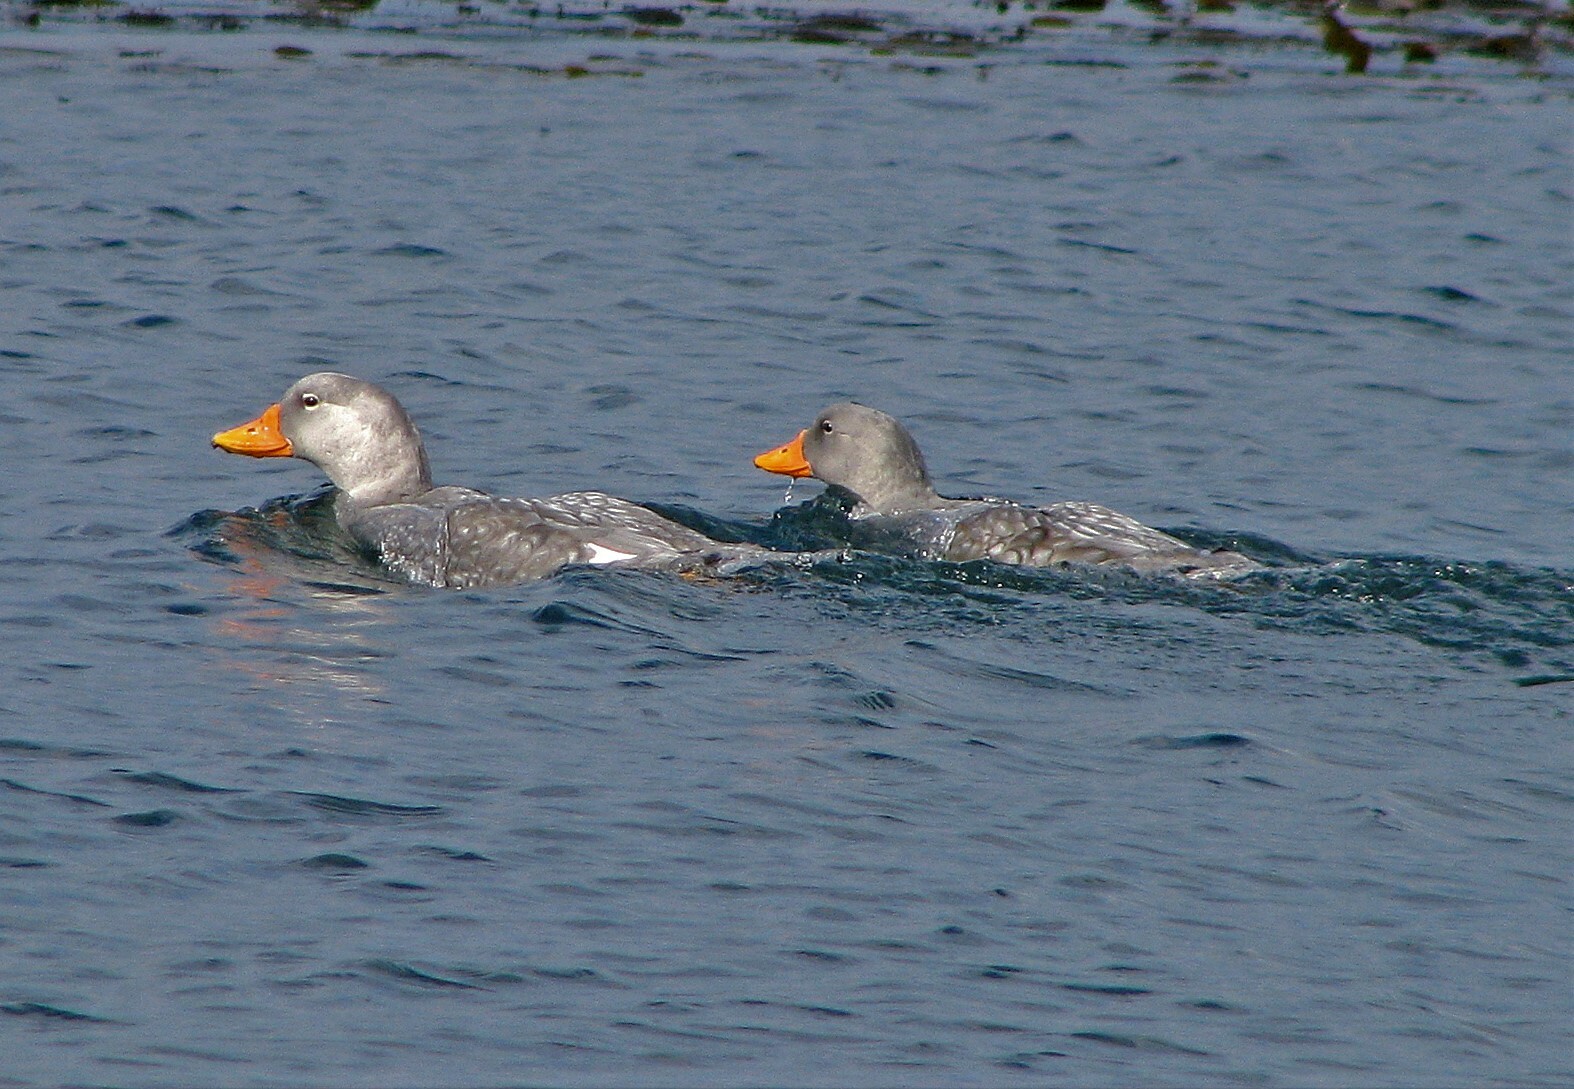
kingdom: Animalia
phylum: Chordata
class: Aves
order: Anseriformes
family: Anatidae
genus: Tachyeres
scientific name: Tachyeres pteneres
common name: Fuegian steamer duck
